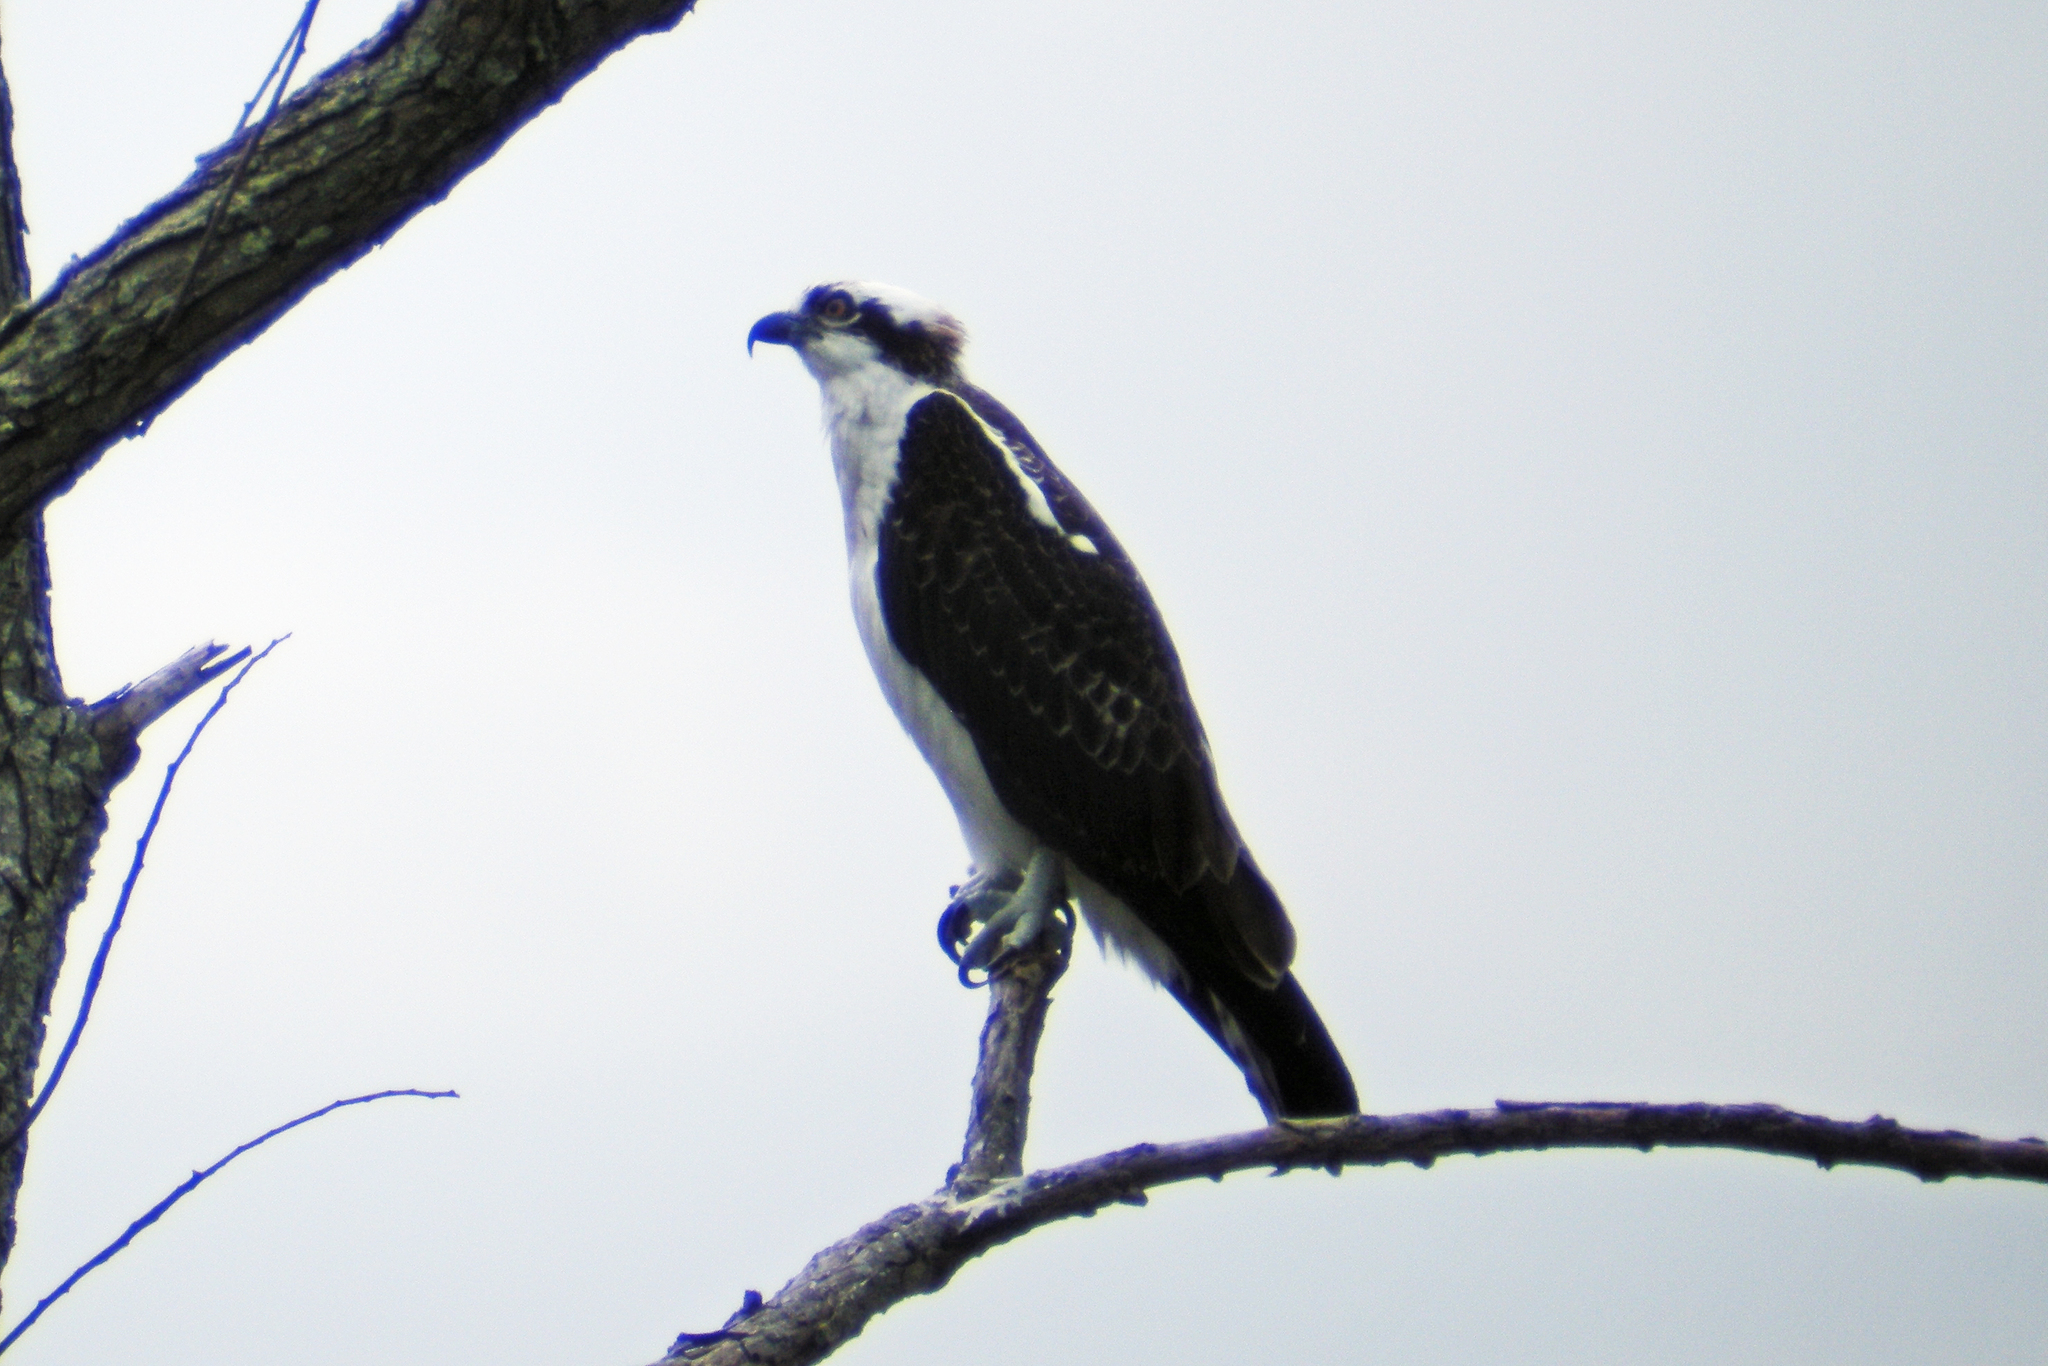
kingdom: Animalia
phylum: Chordata
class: Aves
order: Accipitriformes
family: Pandionidae
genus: Pandion
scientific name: Pandion haliaetus
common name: Osprey
